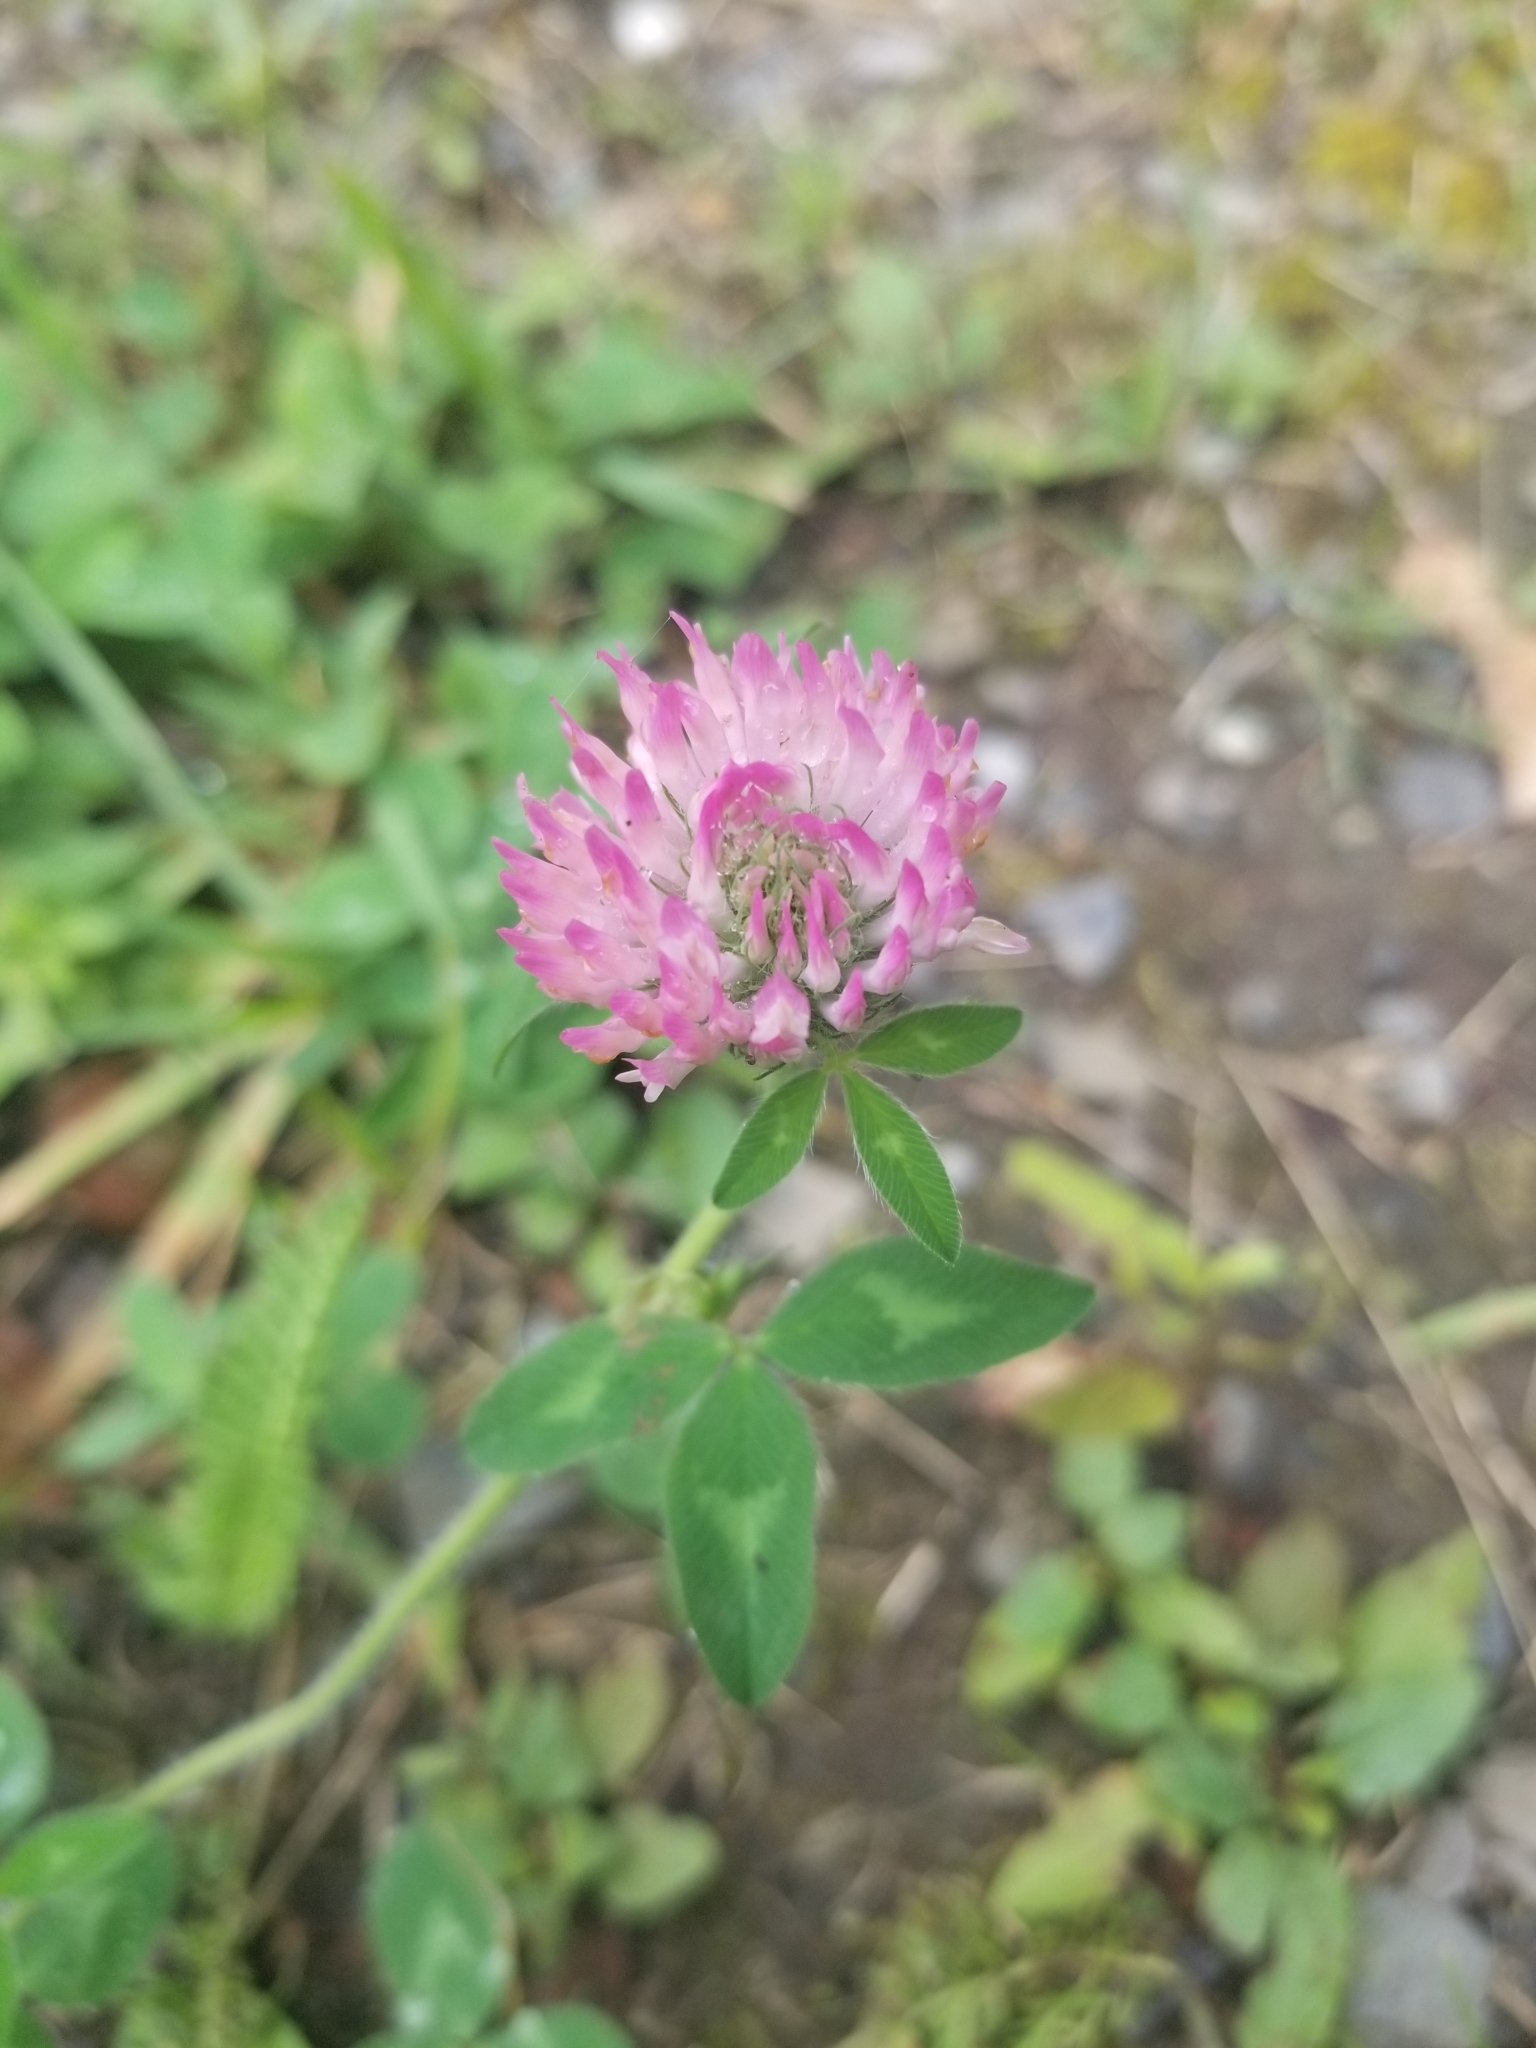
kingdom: Plantae
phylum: Tracheophyta
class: Magnoliopsida
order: Fabales
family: Fabaceae
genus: Trifolium
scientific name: Trifolium pratense
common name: Red clover
